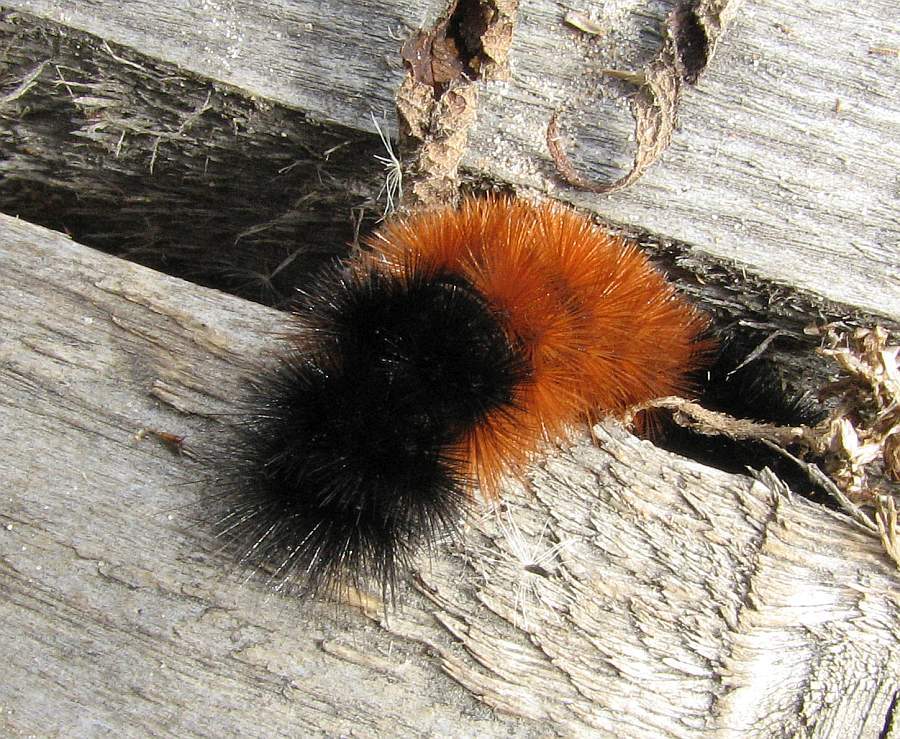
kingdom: Animalia
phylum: Arthropoda
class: Insecta
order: Lepidoptera
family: Erebidae
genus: Pyrrharctia
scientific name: Pyrrharctia isabella
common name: Isabella tiger moth
